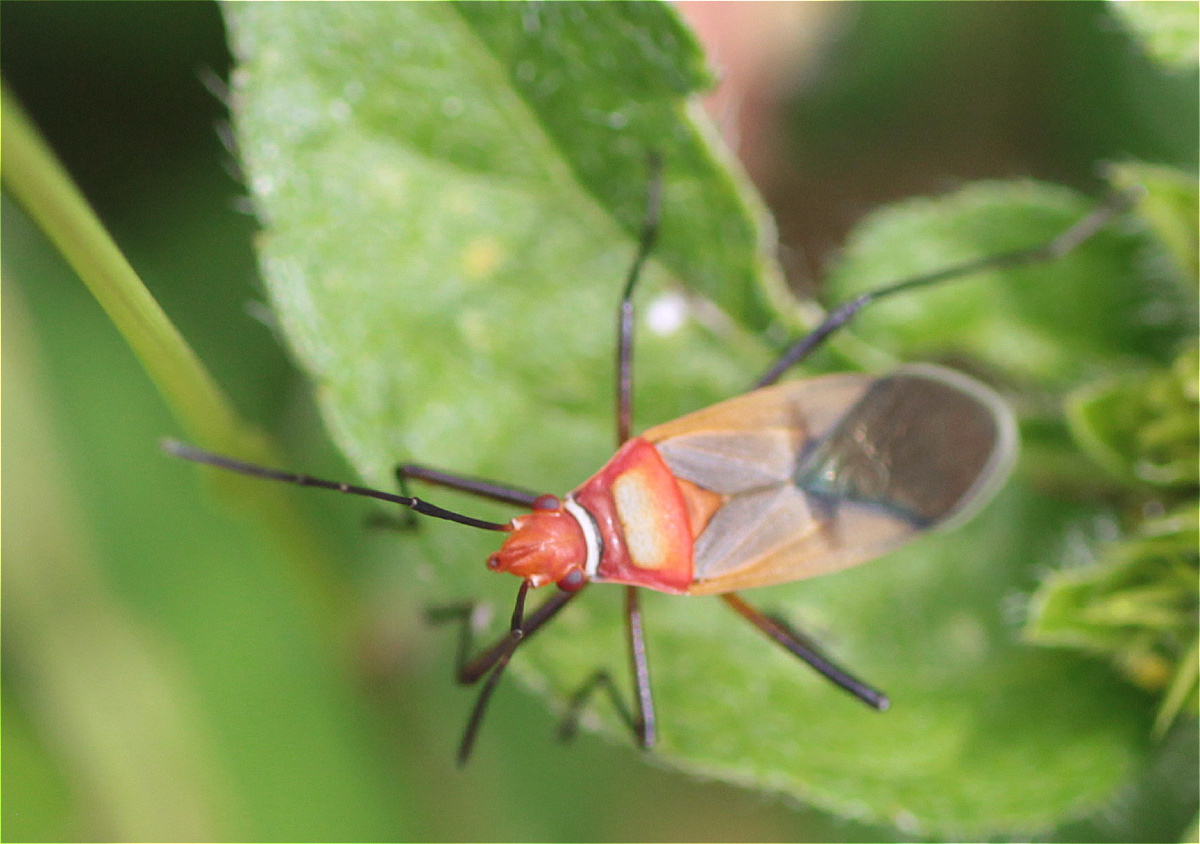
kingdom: Animalia
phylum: Arthropoda
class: Insecta
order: Hemiptera
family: Pyrrhocoridae
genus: Dysdercus
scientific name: Dysdercus collaris
